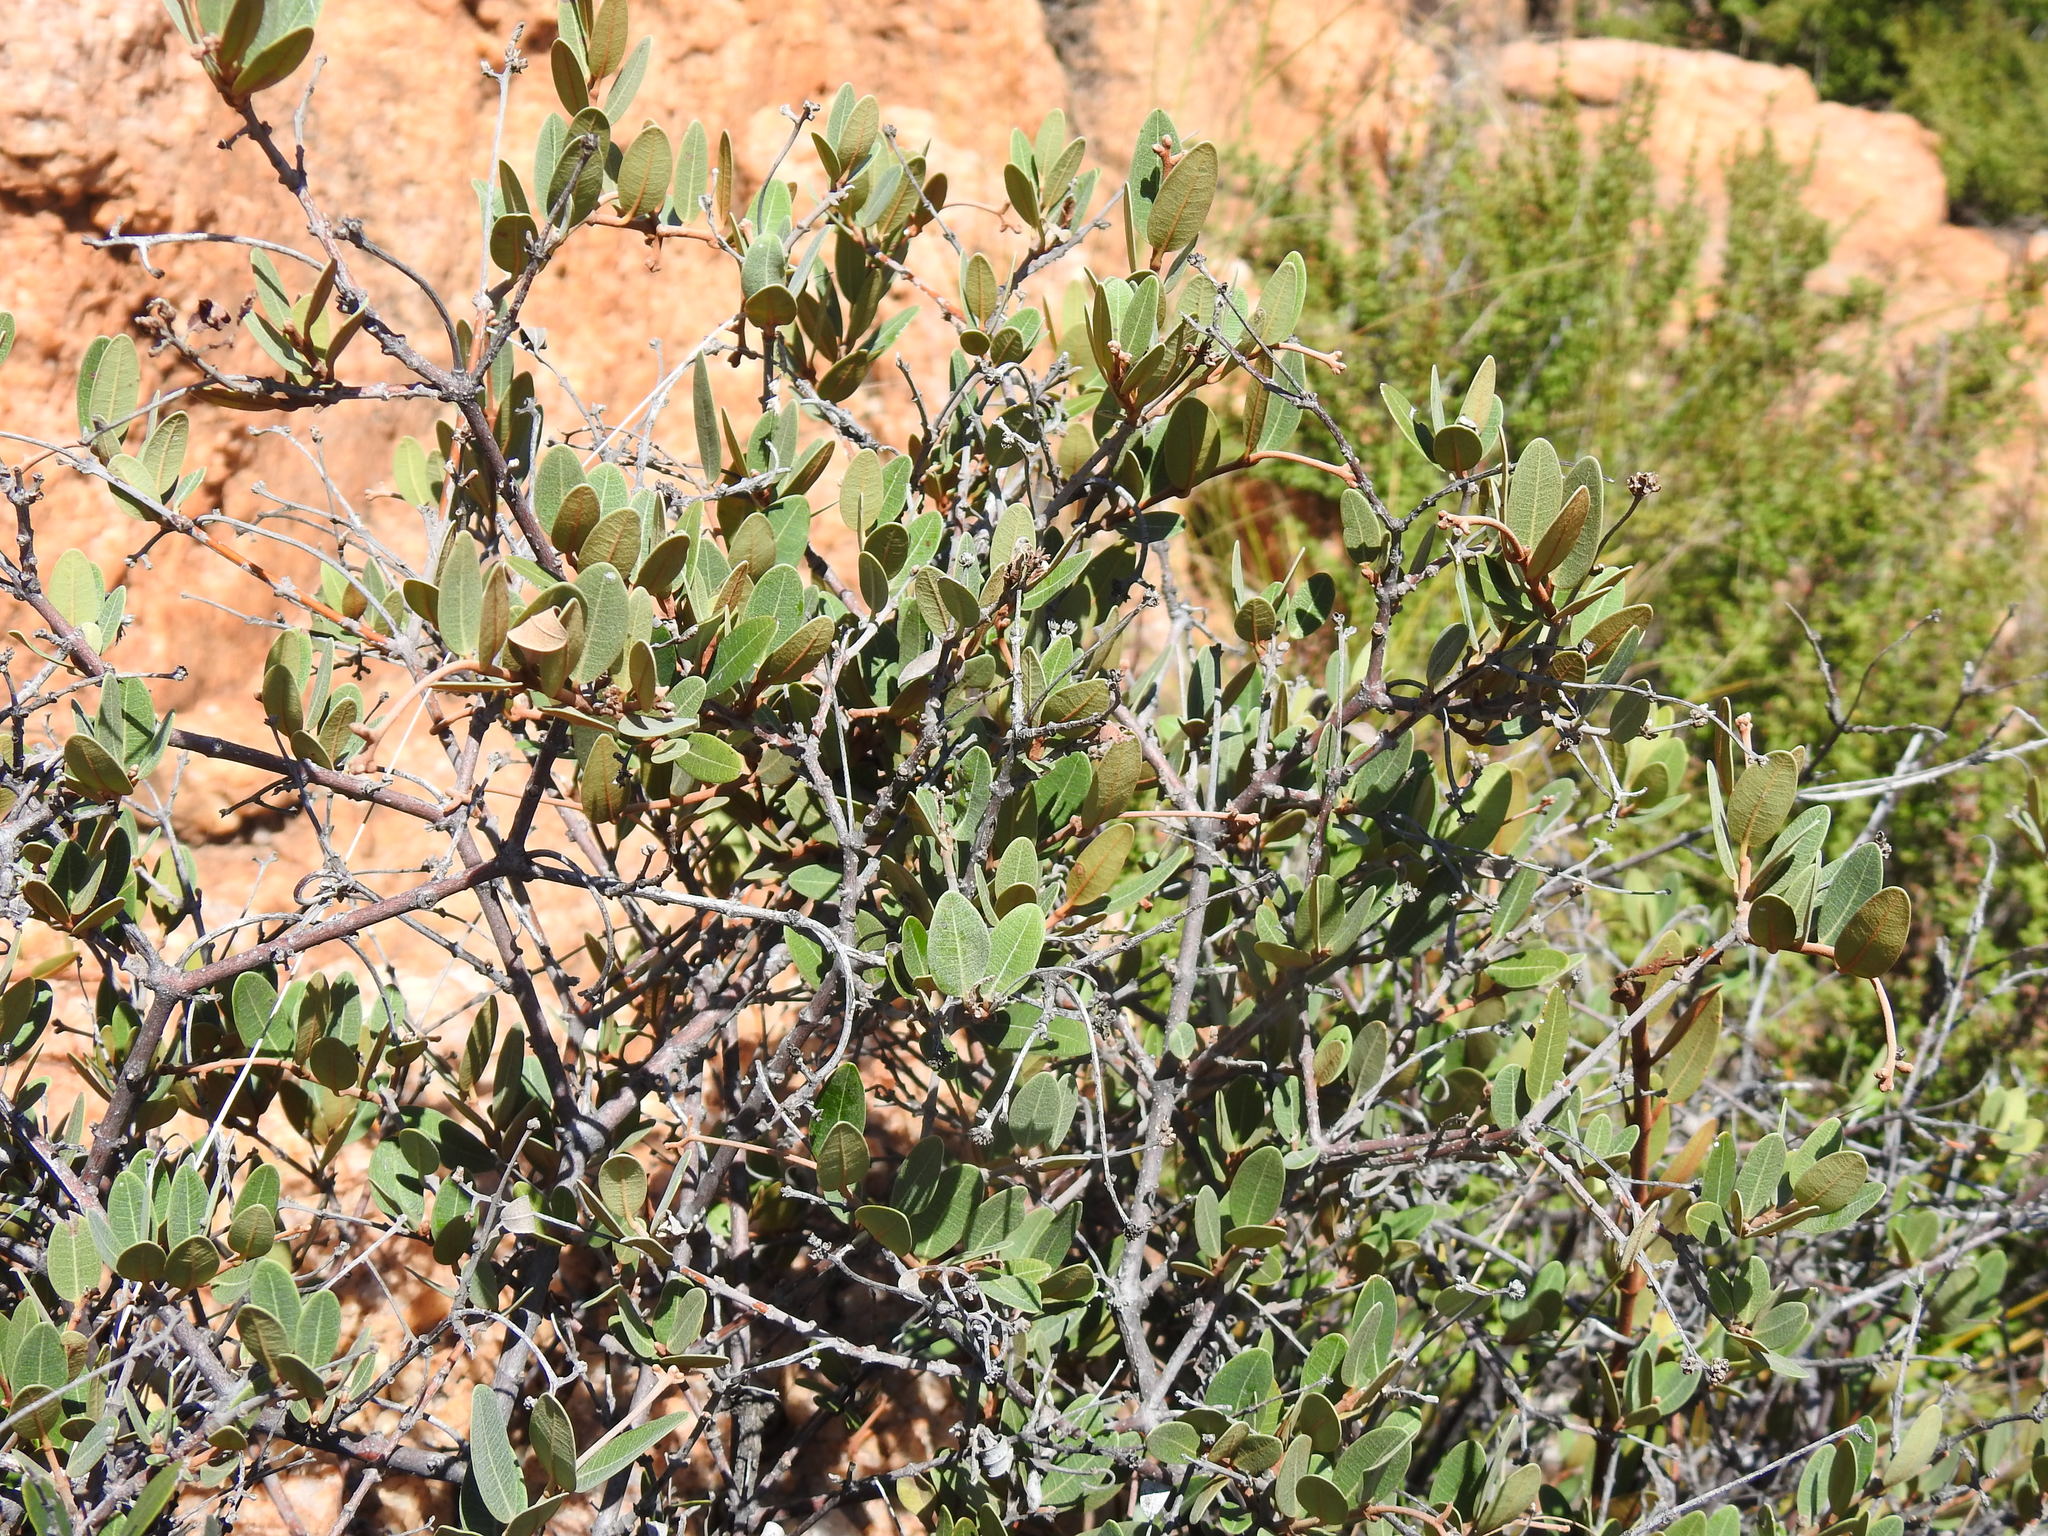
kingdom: Plantae
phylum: Tracheophyta
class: Magnoliopsida
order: Gentianales
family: Apocynaceae
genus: Ancylobothrys
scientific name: Ancylobothrys capensis
